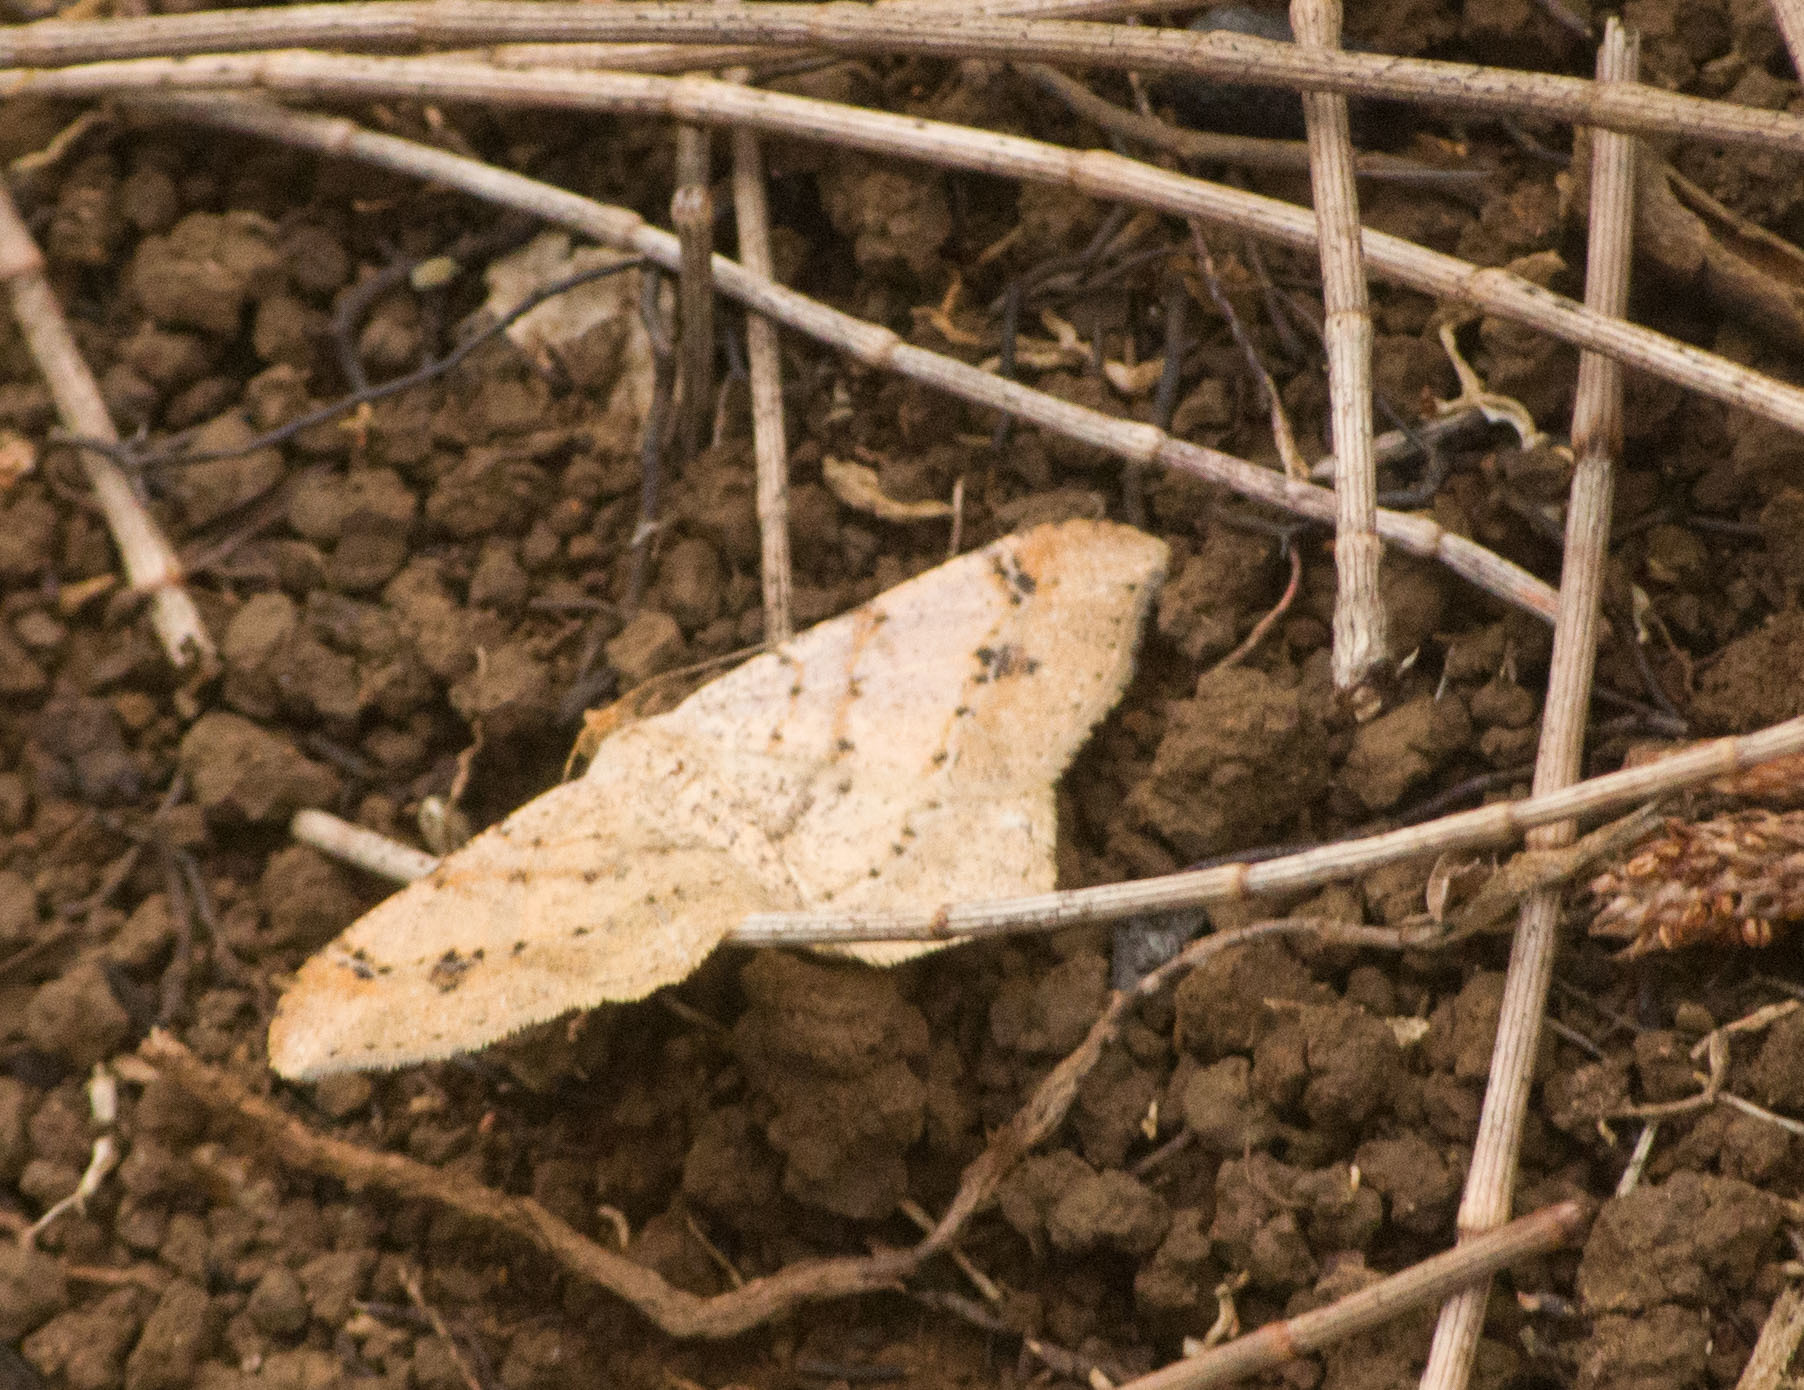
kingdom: Animalia
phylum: Arthropoda
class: Insecta
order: Lepidoptera
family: Geometridae
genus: Macaria
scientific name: Macaria abydata
